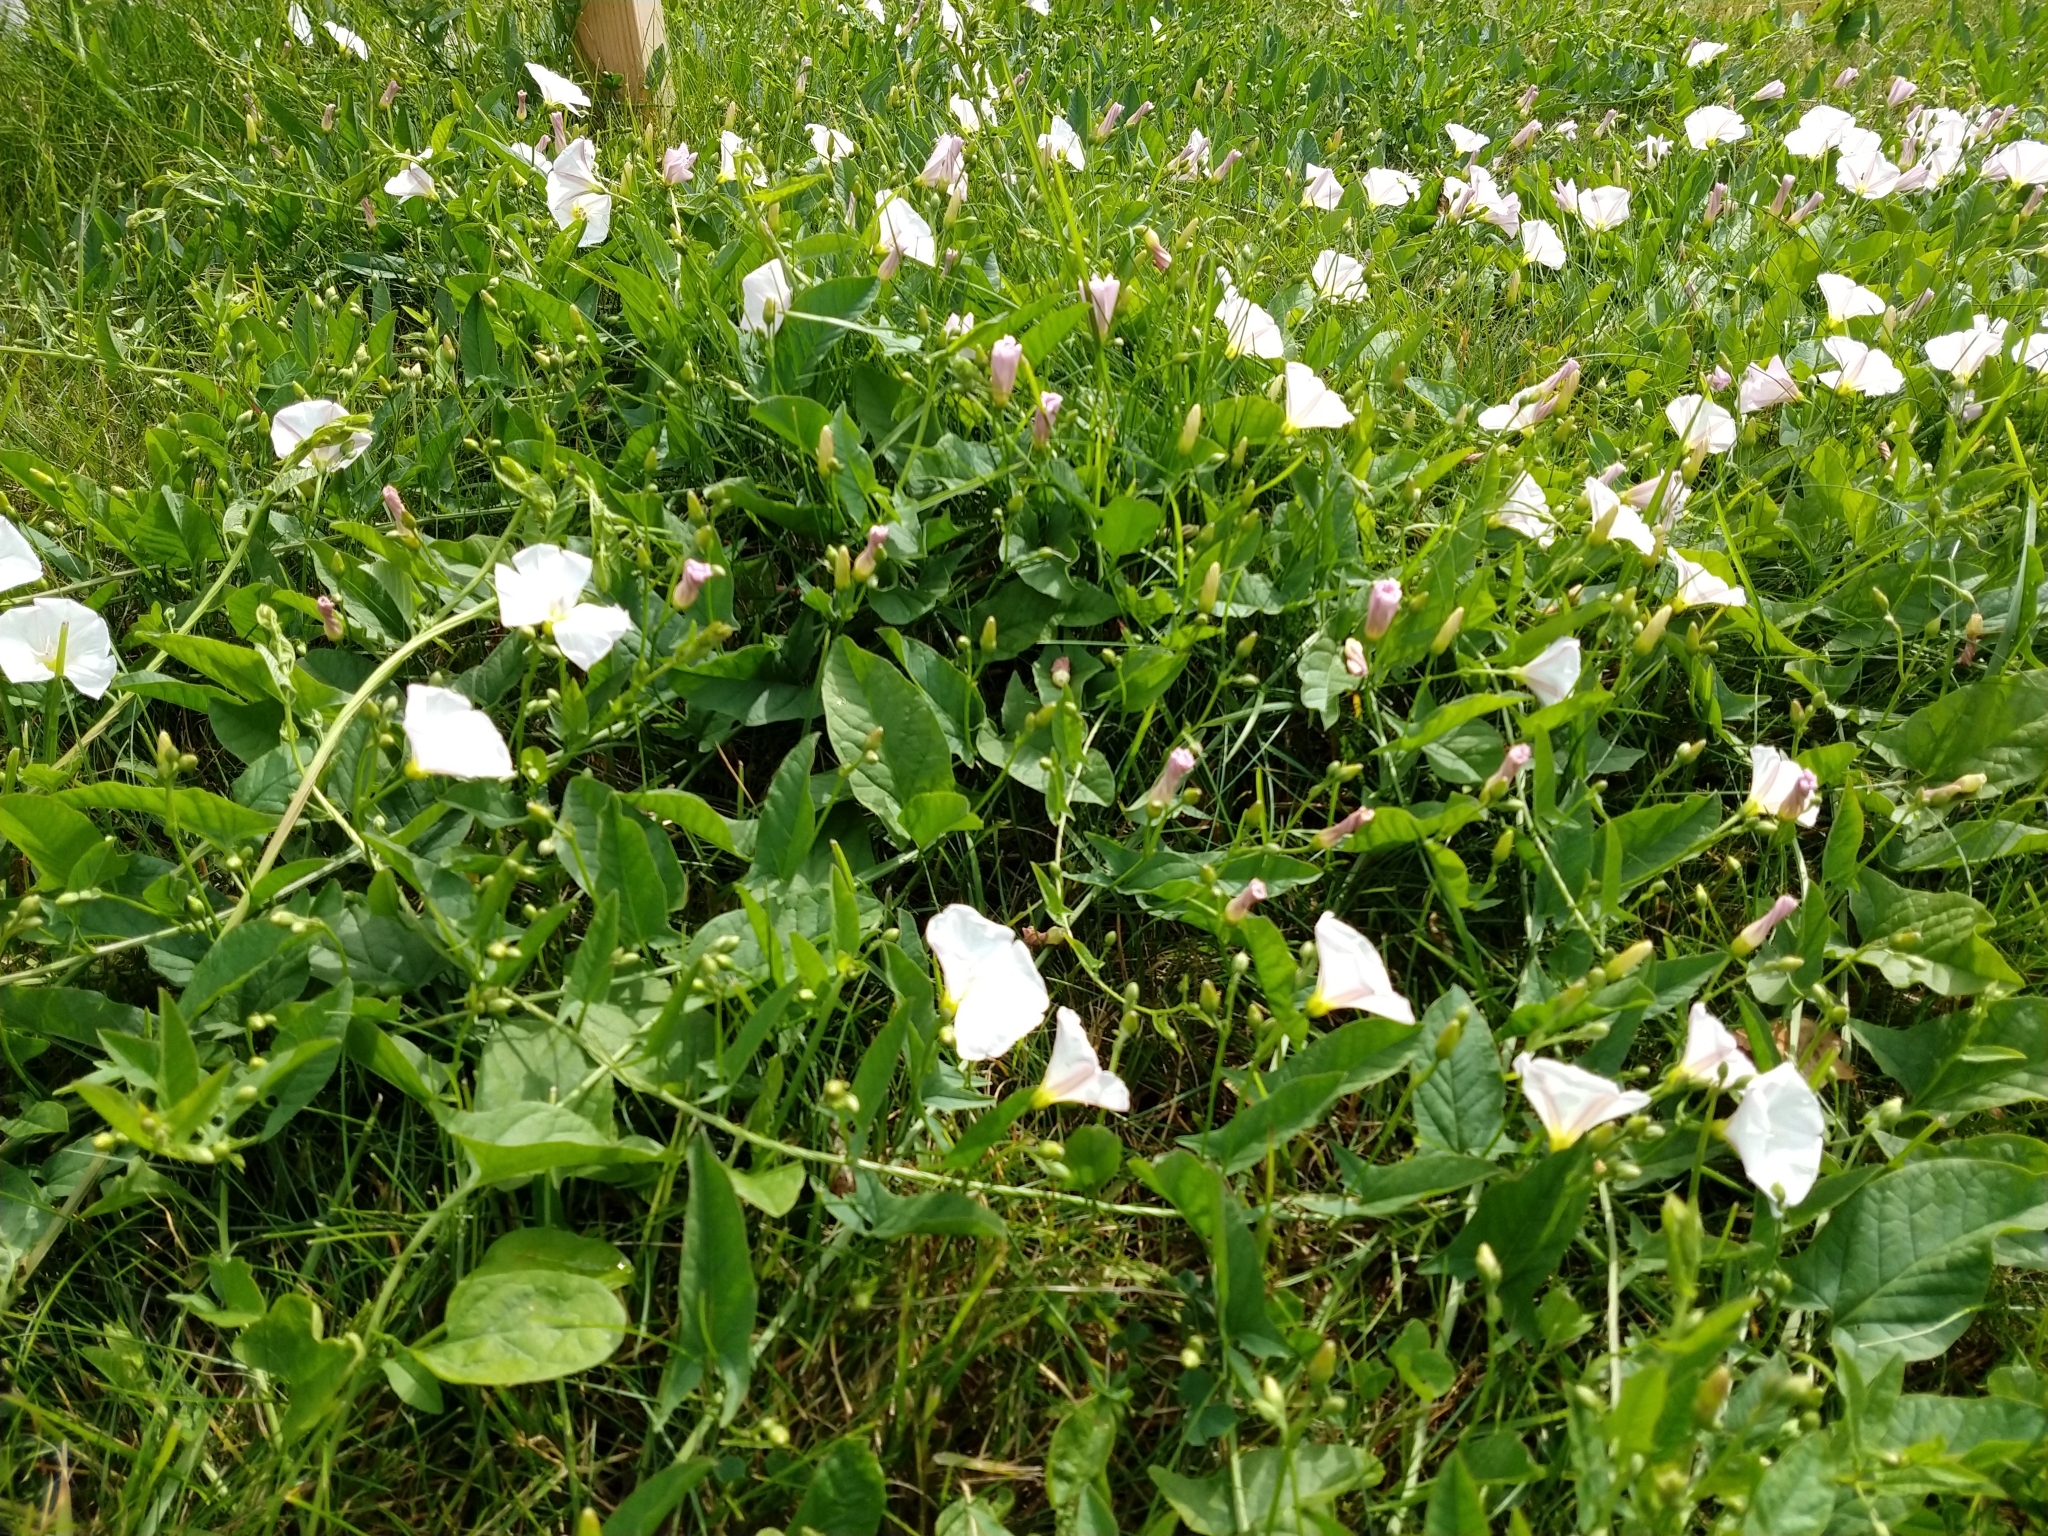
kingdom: Plantae
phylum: Tracheophyta
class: Magnoliopsida
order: Solanales
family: Convolvulaceae
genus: Convolvulus
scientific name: Convolvulus arvensis
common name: Field bindweed
